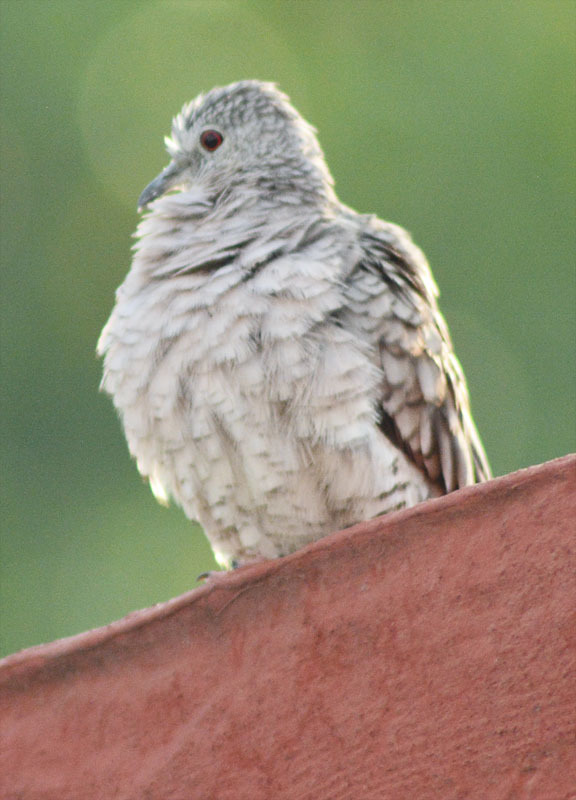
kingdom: Animalia
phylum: Chordata
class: Aves
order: Columbiformes
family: Columbidae
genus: Columbina
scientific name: Columbina inca
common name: Inca dove
